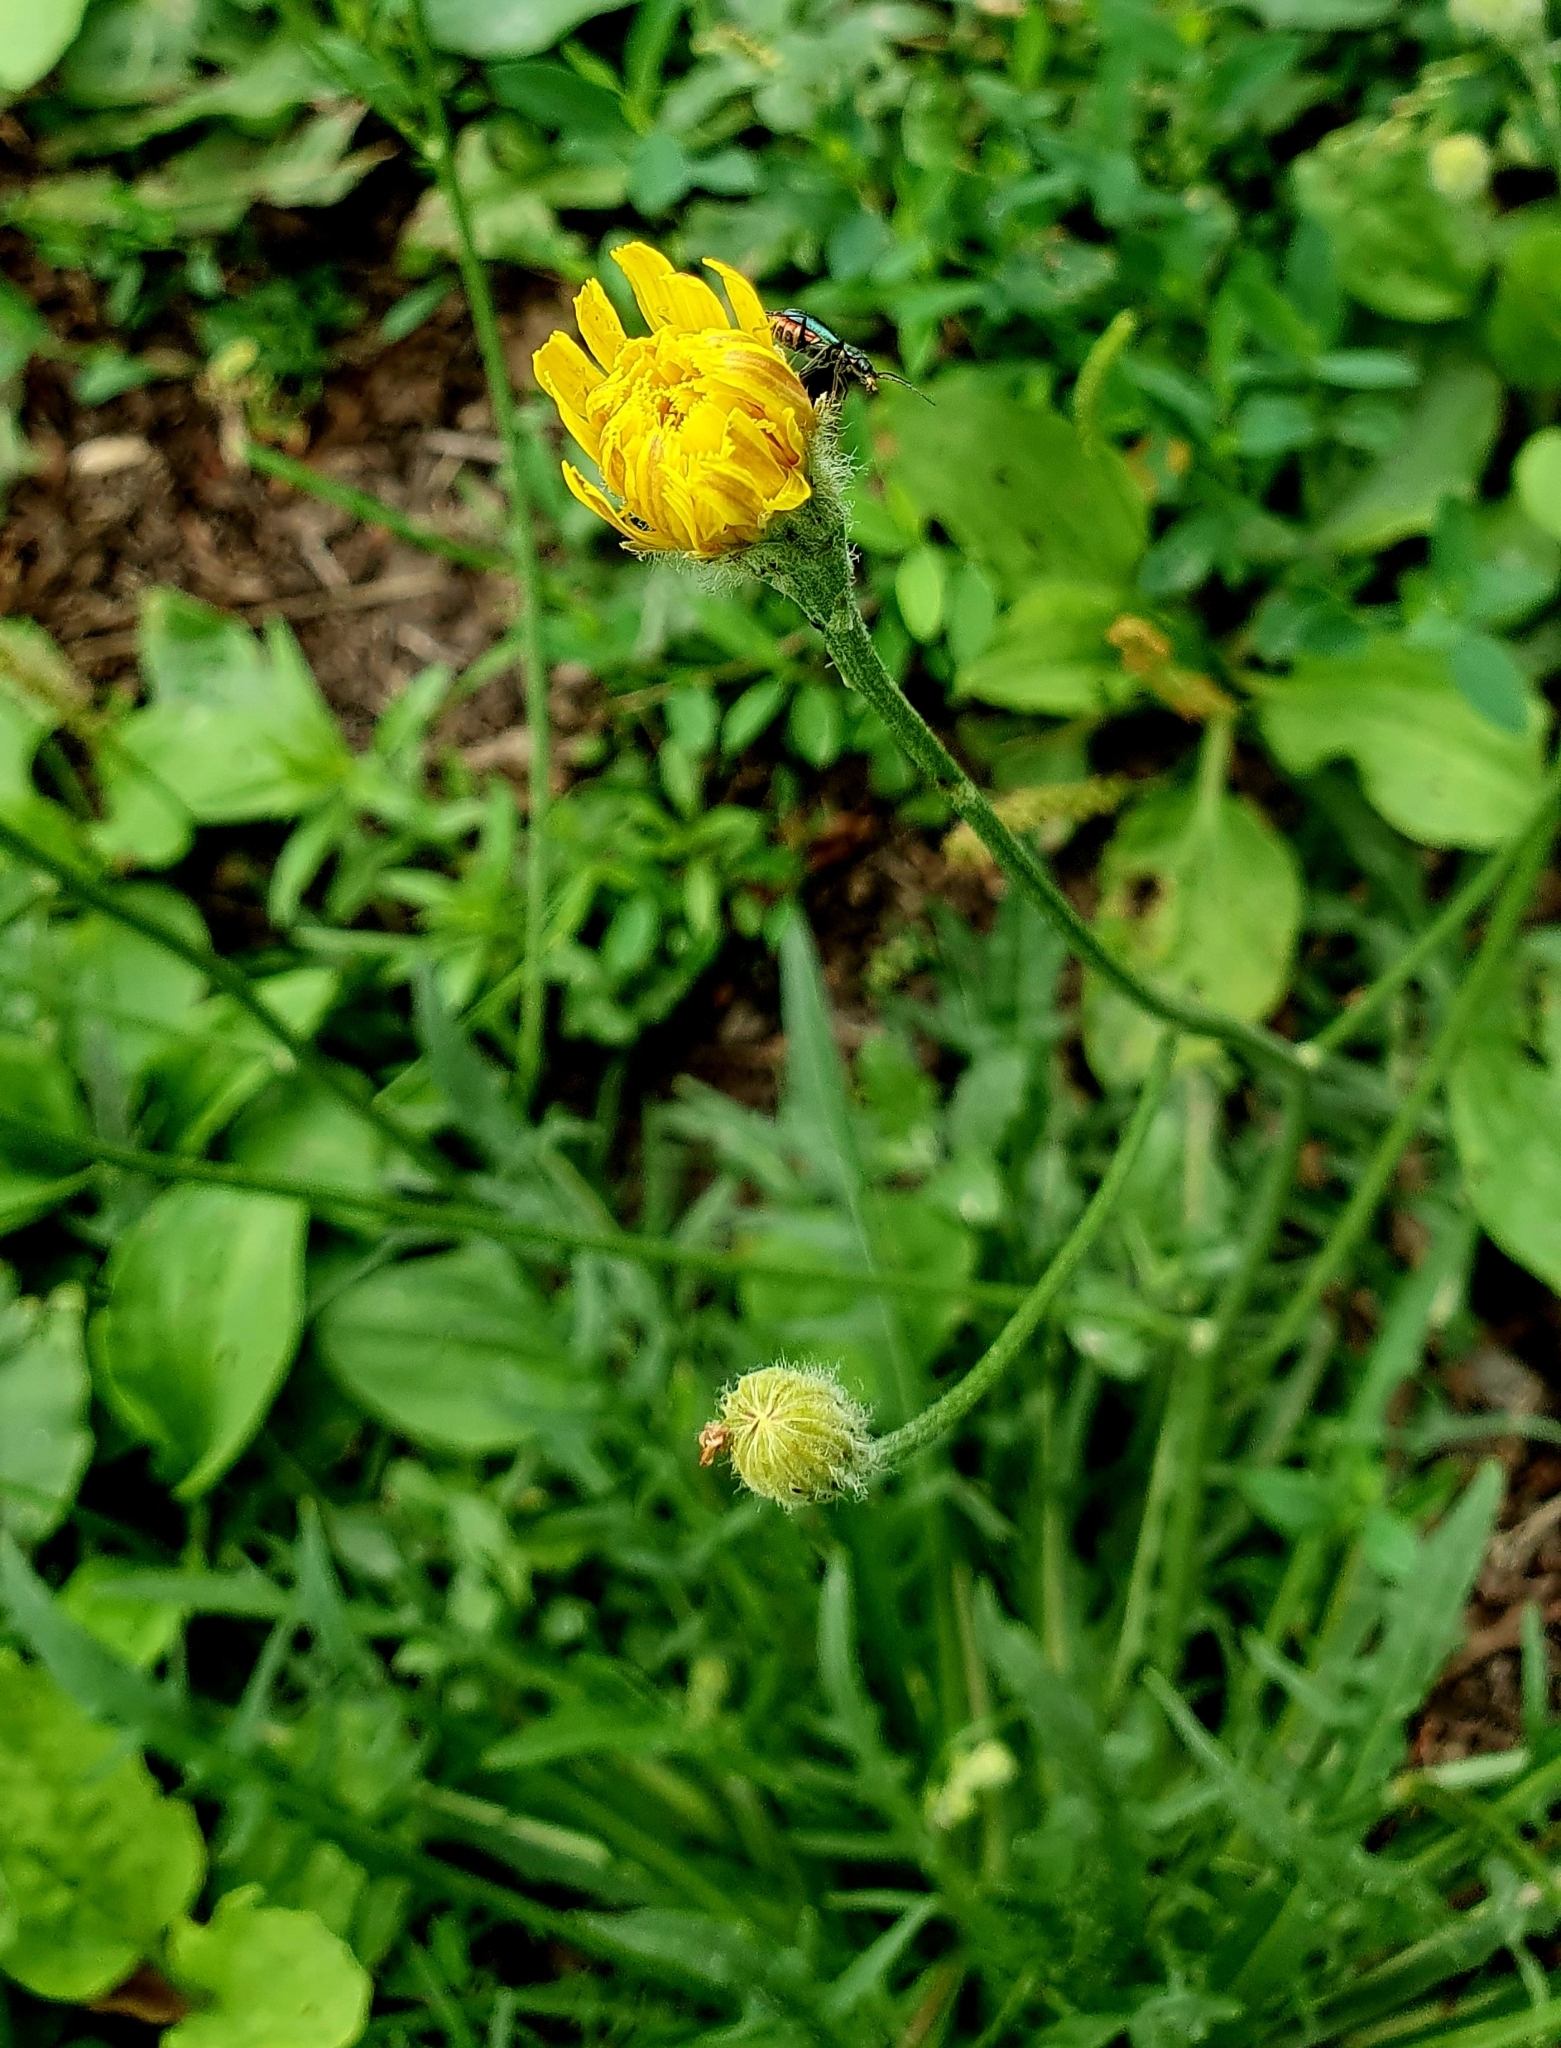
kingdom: Plantae
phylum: Tracheophyta
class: Magnoliopsida
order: Asterales
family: Asteraceae
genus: Scorzoneroides
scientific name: Scorzoneroides autumnalis
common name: Autumn hawkbit
